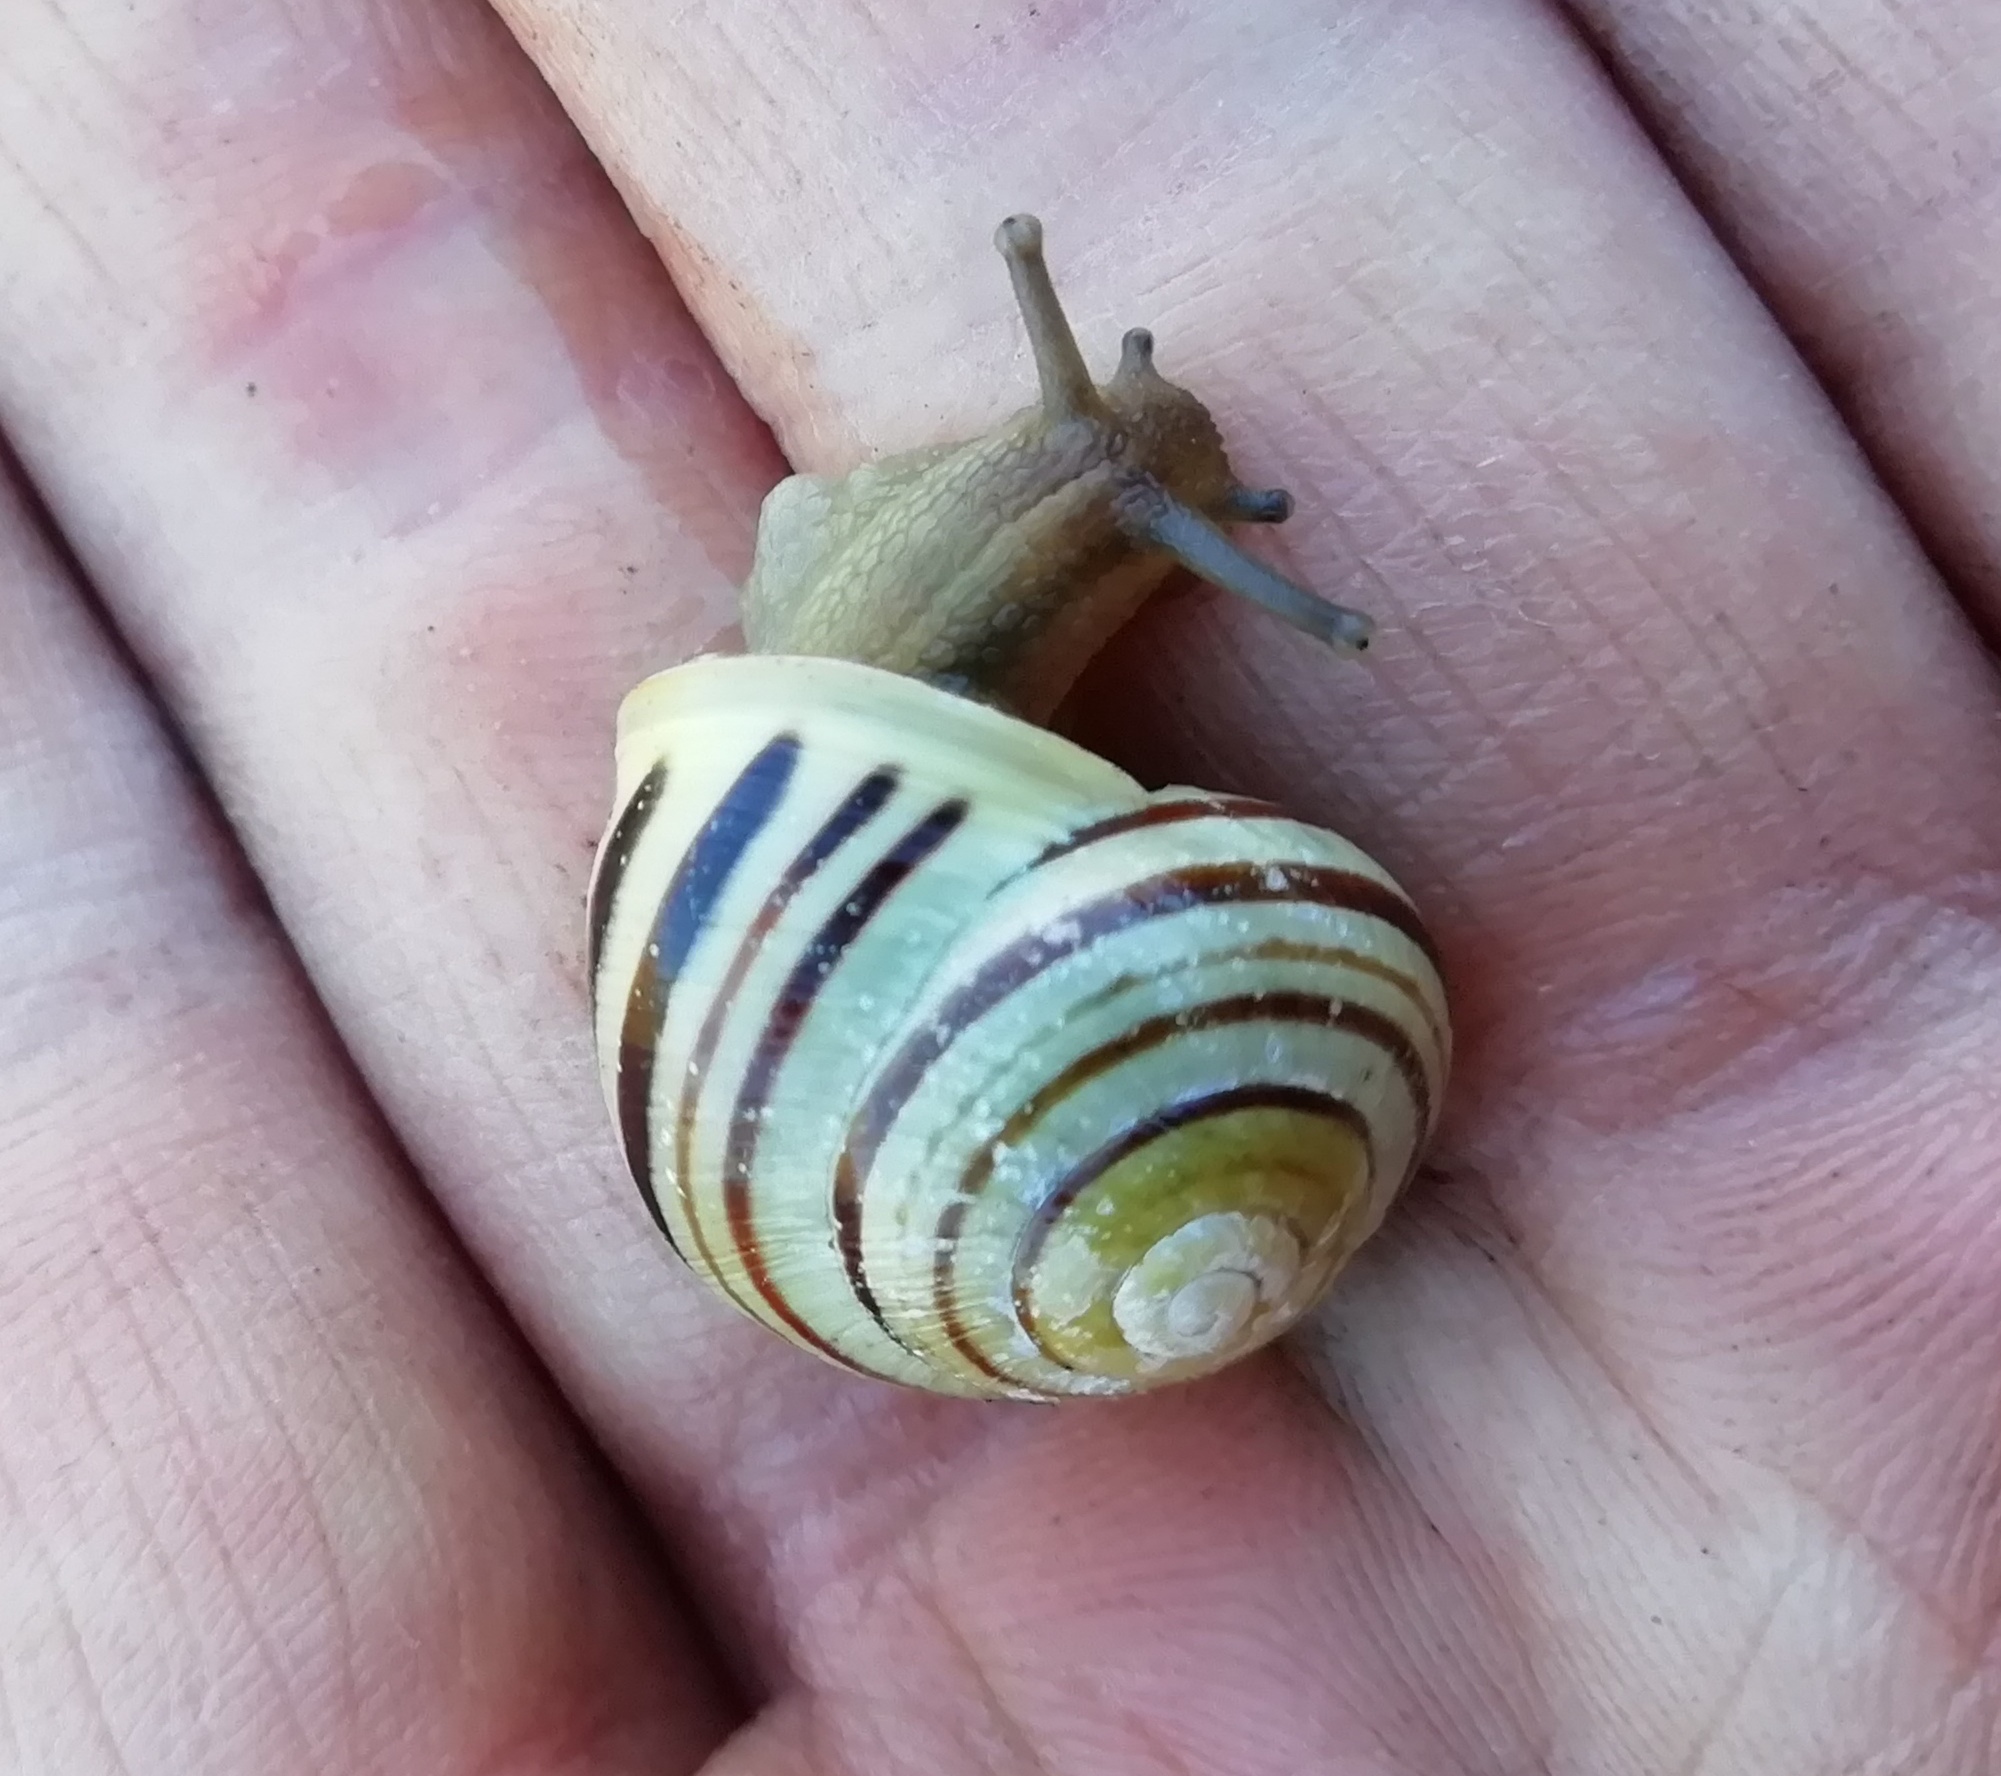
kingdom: Animalia
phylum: Mollusca
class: Gastropoda
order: Stylommatophora
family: Helicidae
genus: Cepaea
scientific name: Cepaea hortensis
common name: White-lip gardensnail
